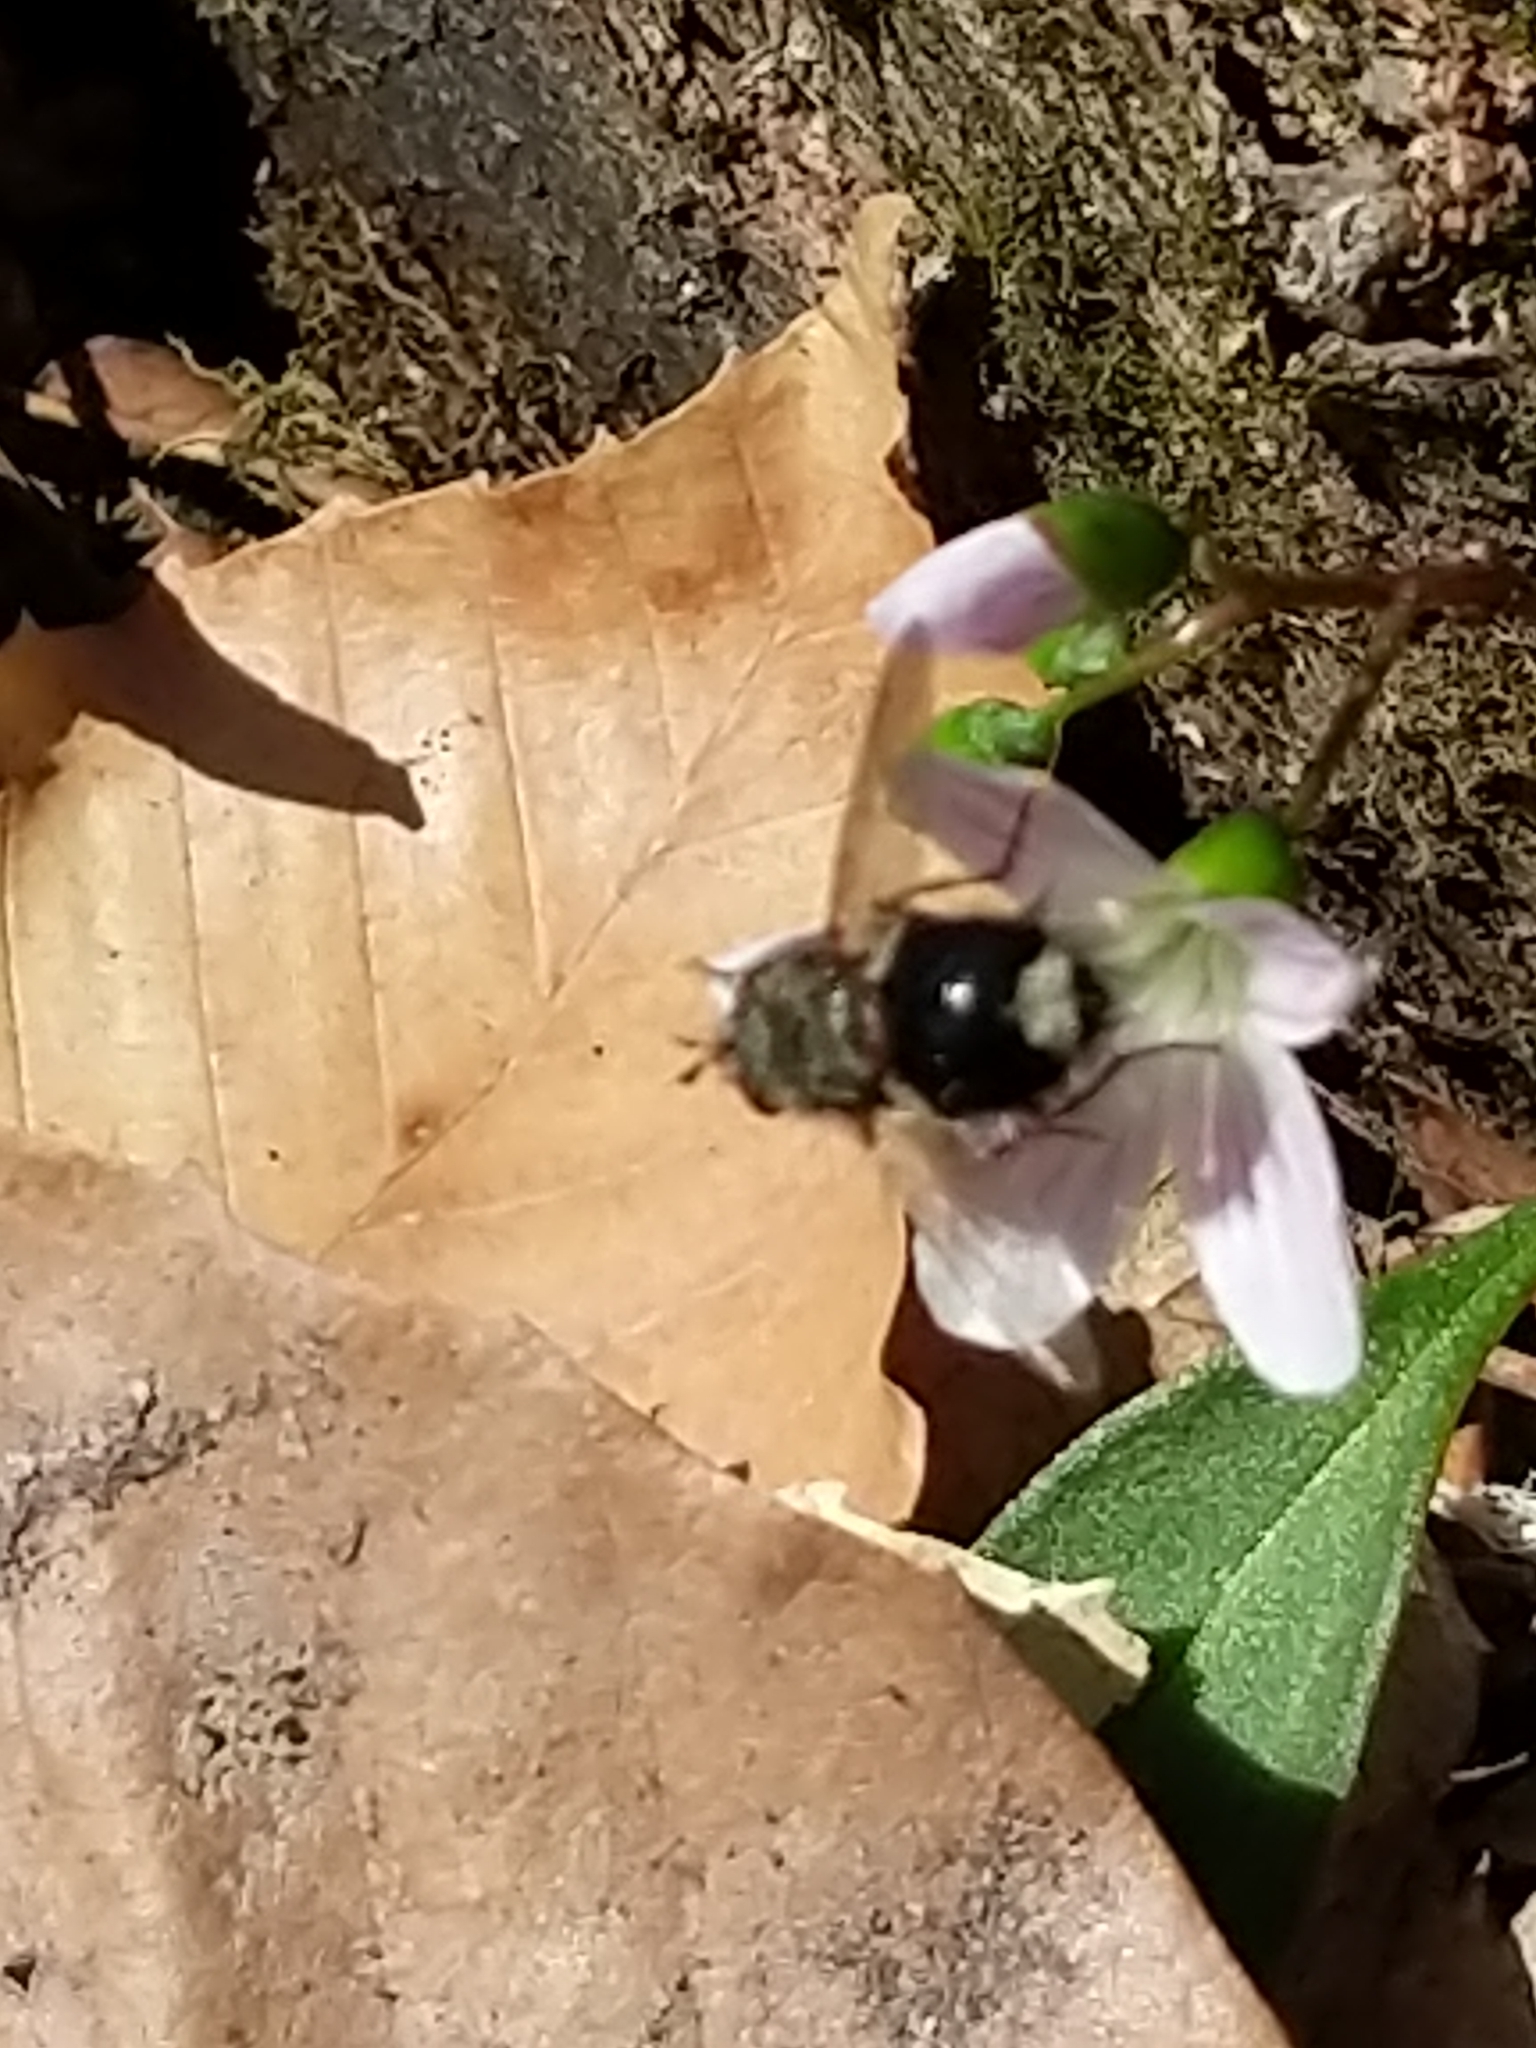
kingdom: Animalia
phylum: Arthropoda
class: Insecta
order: Diptera
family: Tachinidae
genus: Epalpus
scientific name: Epalpus signifer
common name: Early tachinid fly
